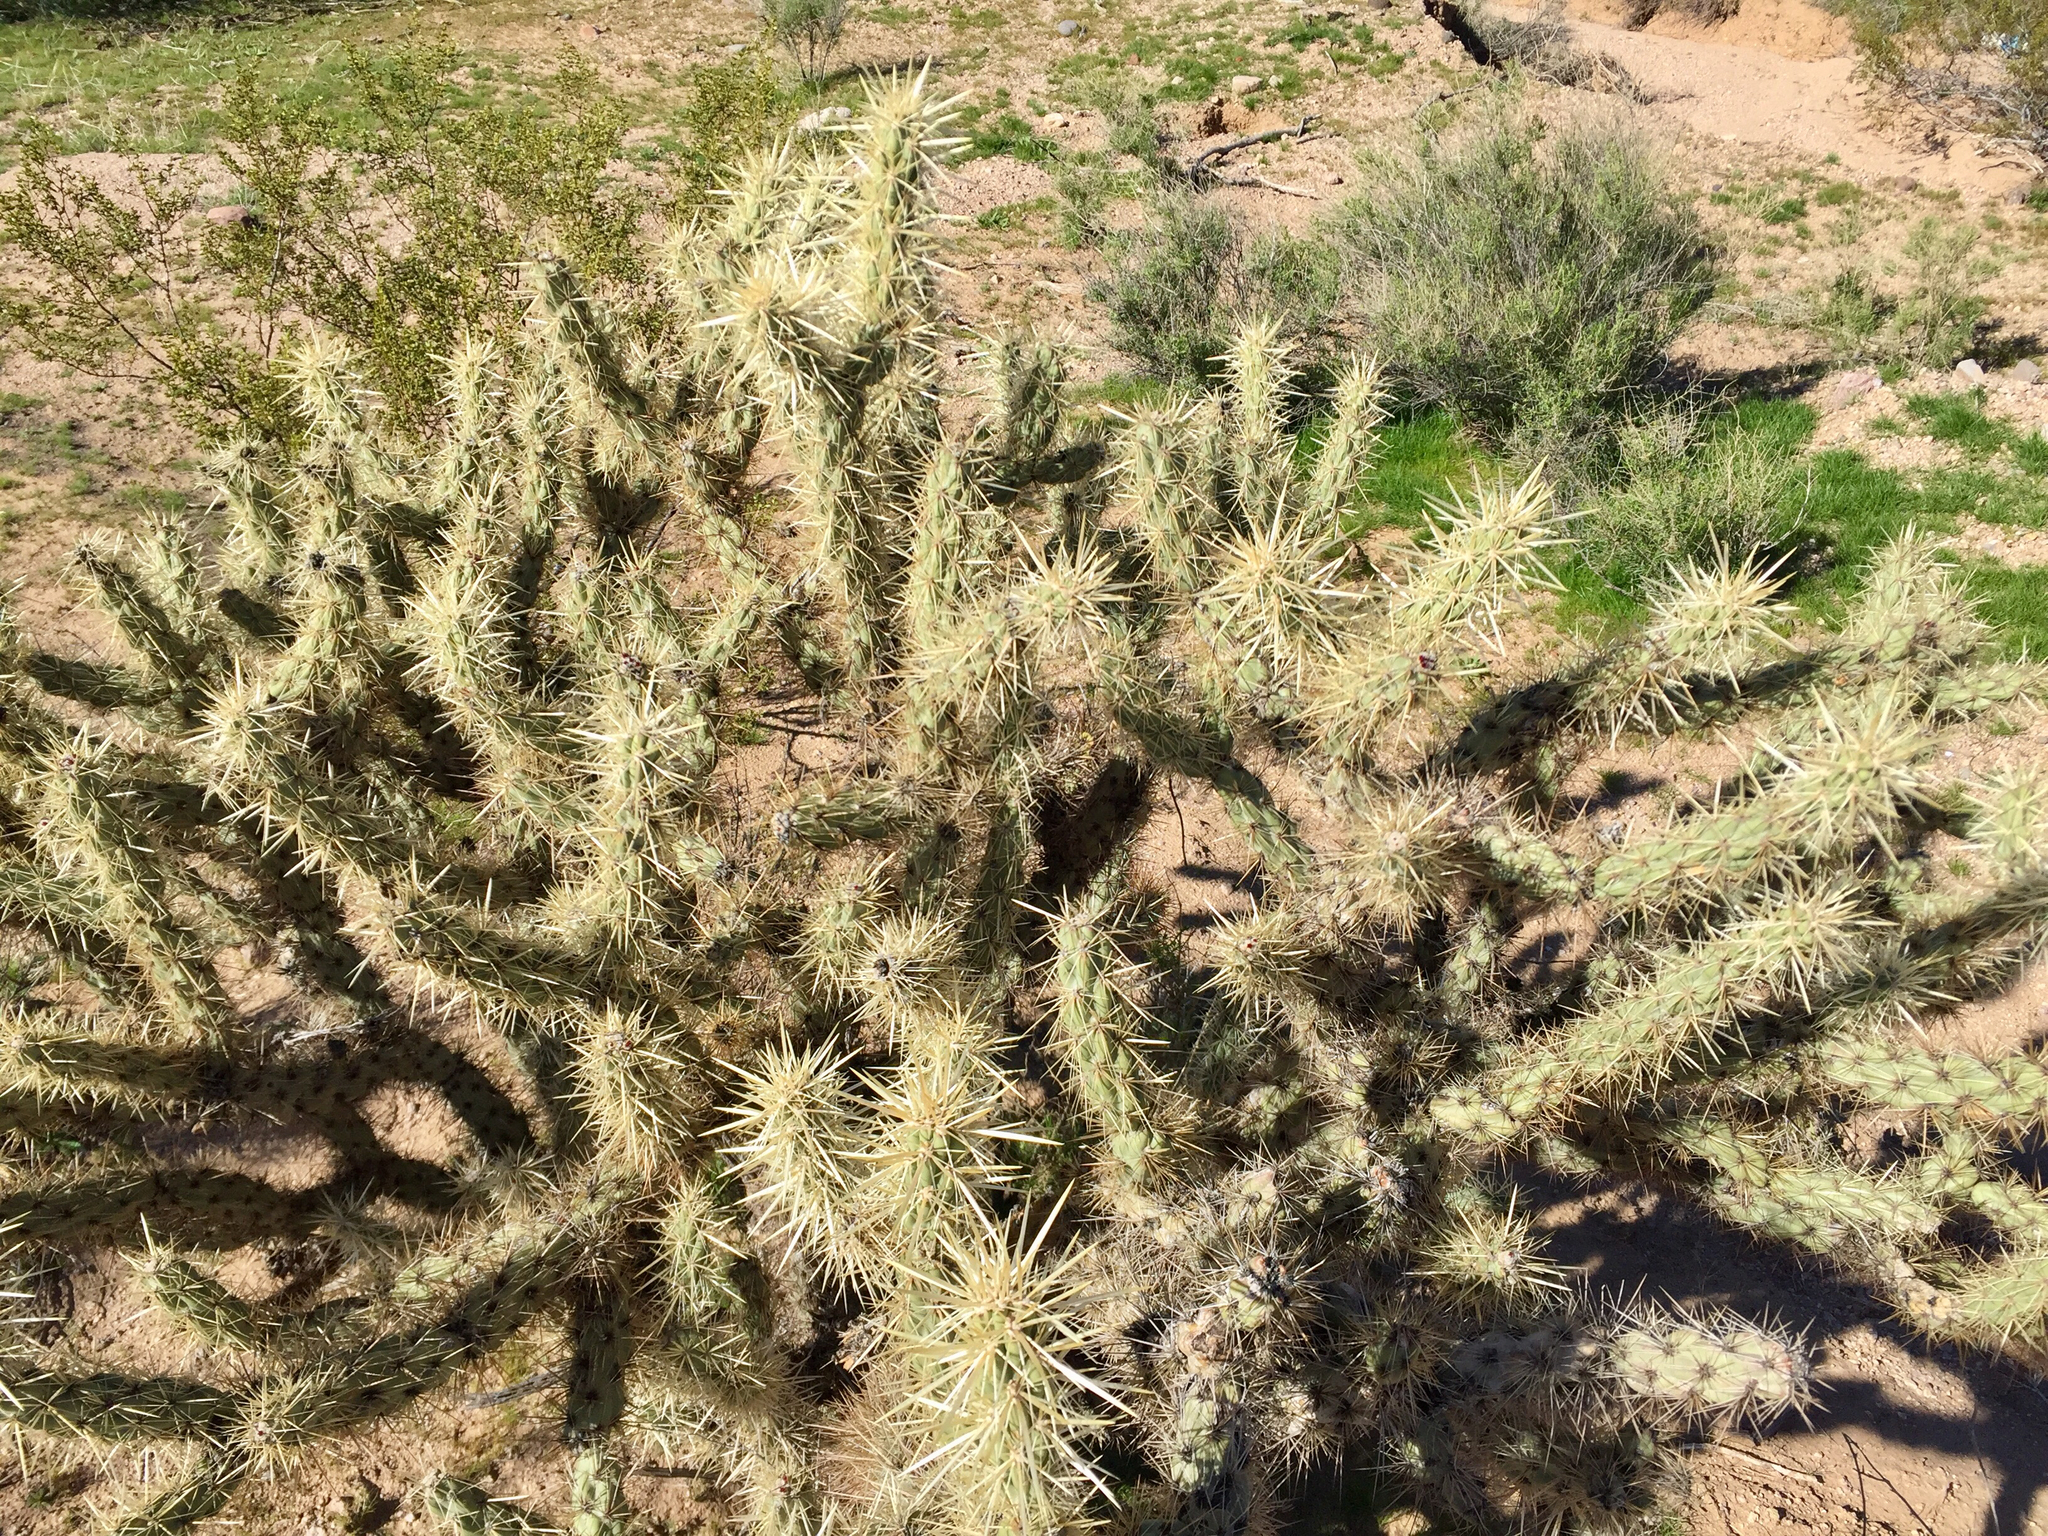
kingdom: Plantae
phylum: Tracheophyta
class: Magnoliopsida
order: Caryophyllales
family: Cactaceae
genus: Cylindropuntia
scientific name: Cylindropuntia acanthocarpa
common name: Buckhorn cholla
